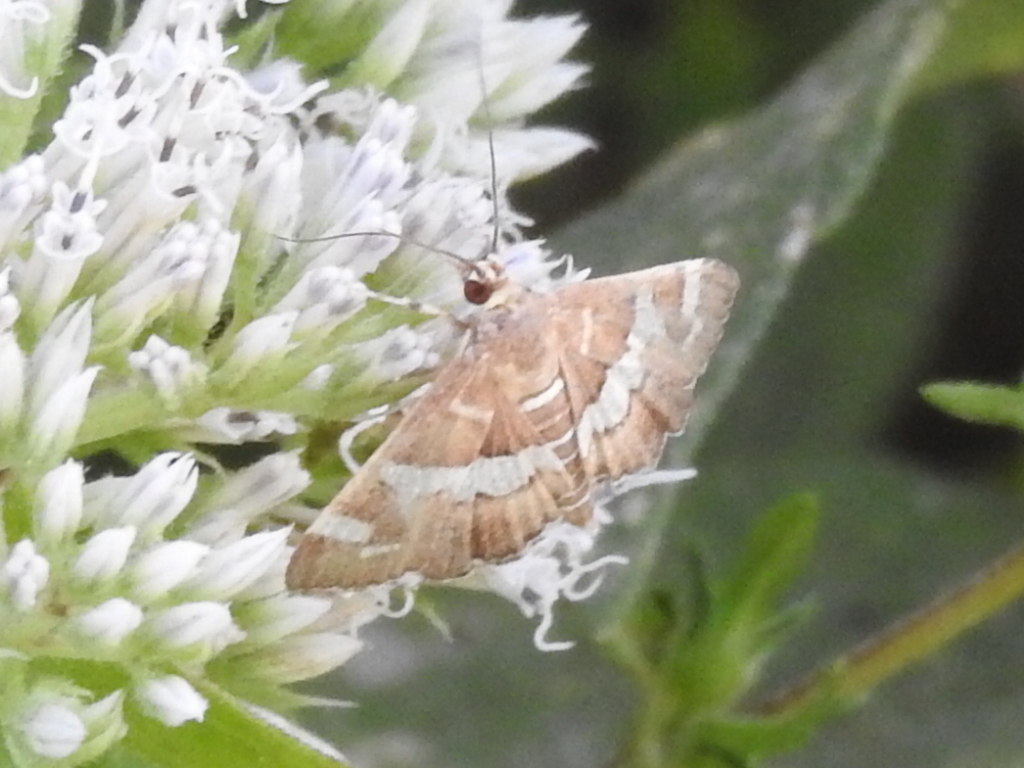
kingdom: Animalia
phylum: Arthropoda
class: Insecta
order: Lepidoptera
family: Crambidae
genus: Spoladea
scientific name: Spoladea recurvalis
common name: Beet webworm moth
